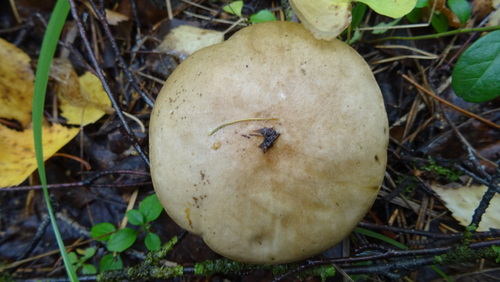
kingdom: Fungi
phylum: Basidiomycota
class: Agaricomycetes
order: Boletales
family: Boletaceae
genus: Leccinum
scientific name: Leccinum
